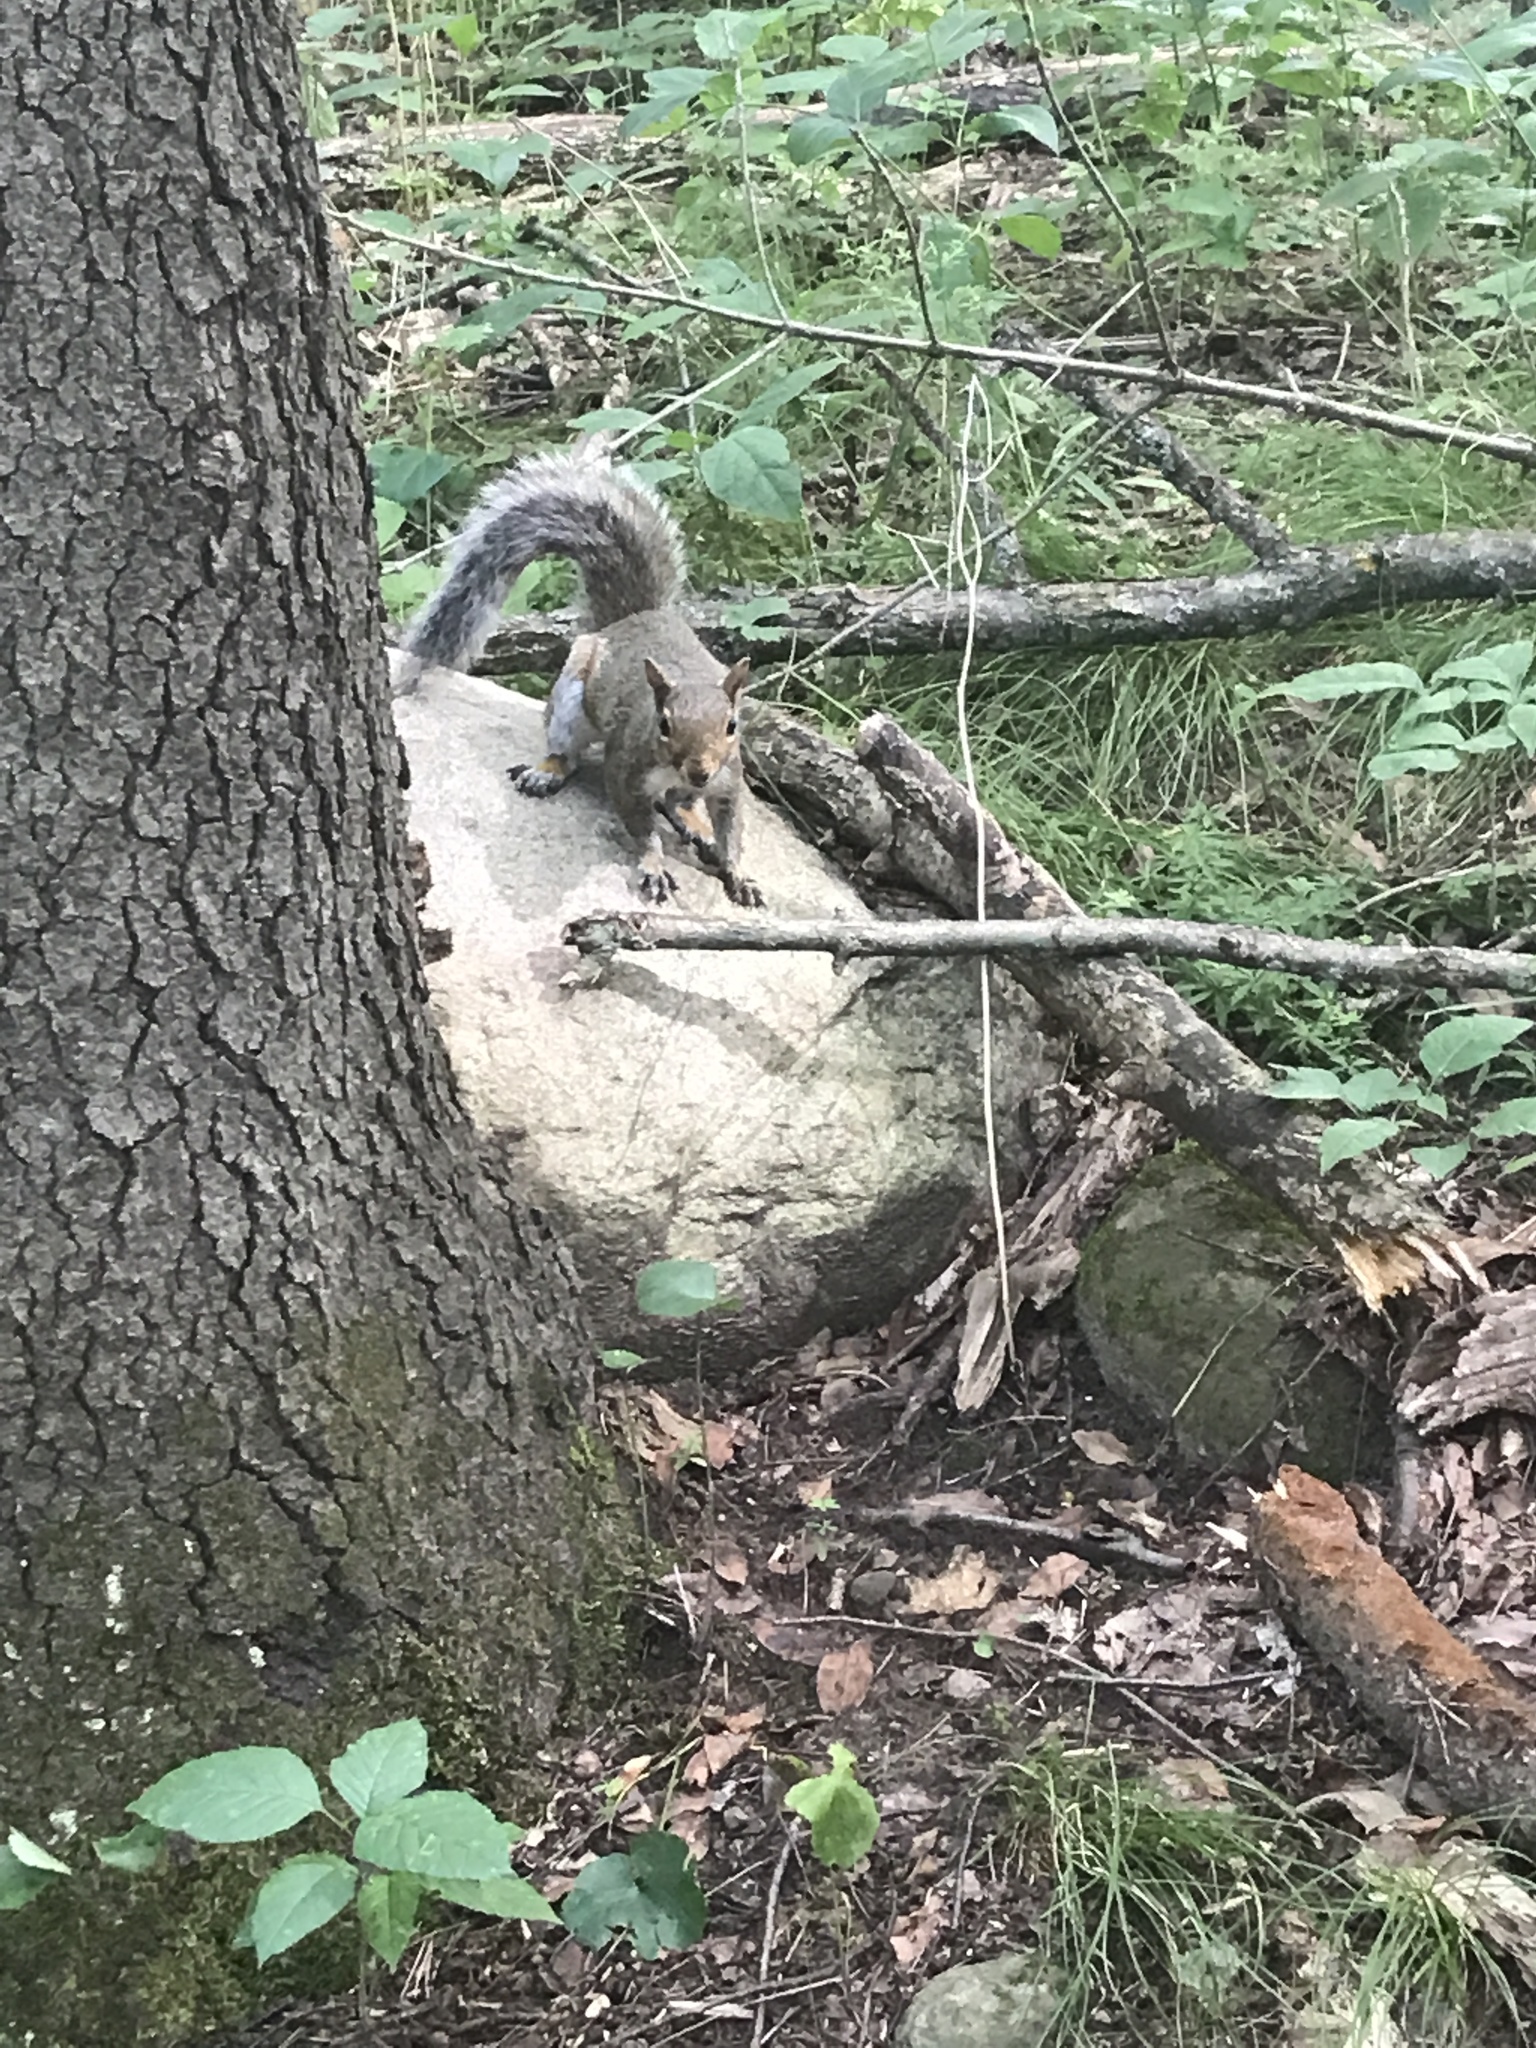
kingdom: Animalia
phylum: Chordata
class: Mammalia
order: Rodentia
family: Sciuridae
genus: Sciurus
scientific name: Sciurus carolinensis
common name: Eastern gray squirrel
